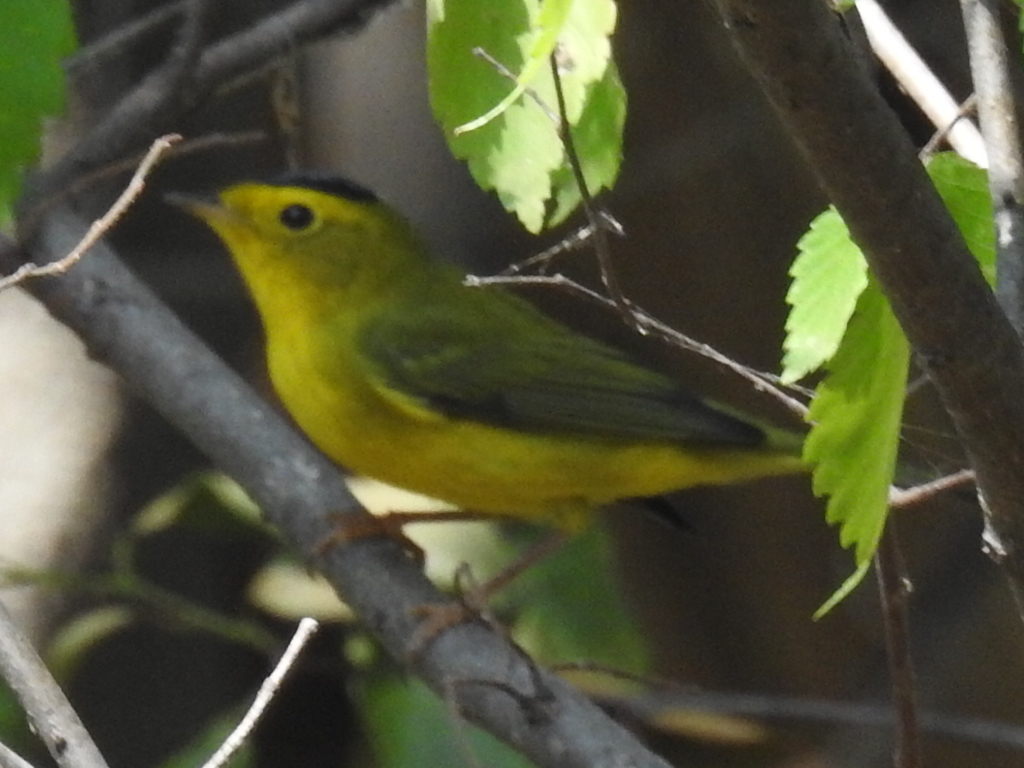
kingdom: Animalia
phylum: Chordata
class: Aves
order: Passeriformes
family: Parulidae
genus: Cardellina
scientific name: Cardellina pusilla
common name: Wilson's warbler
